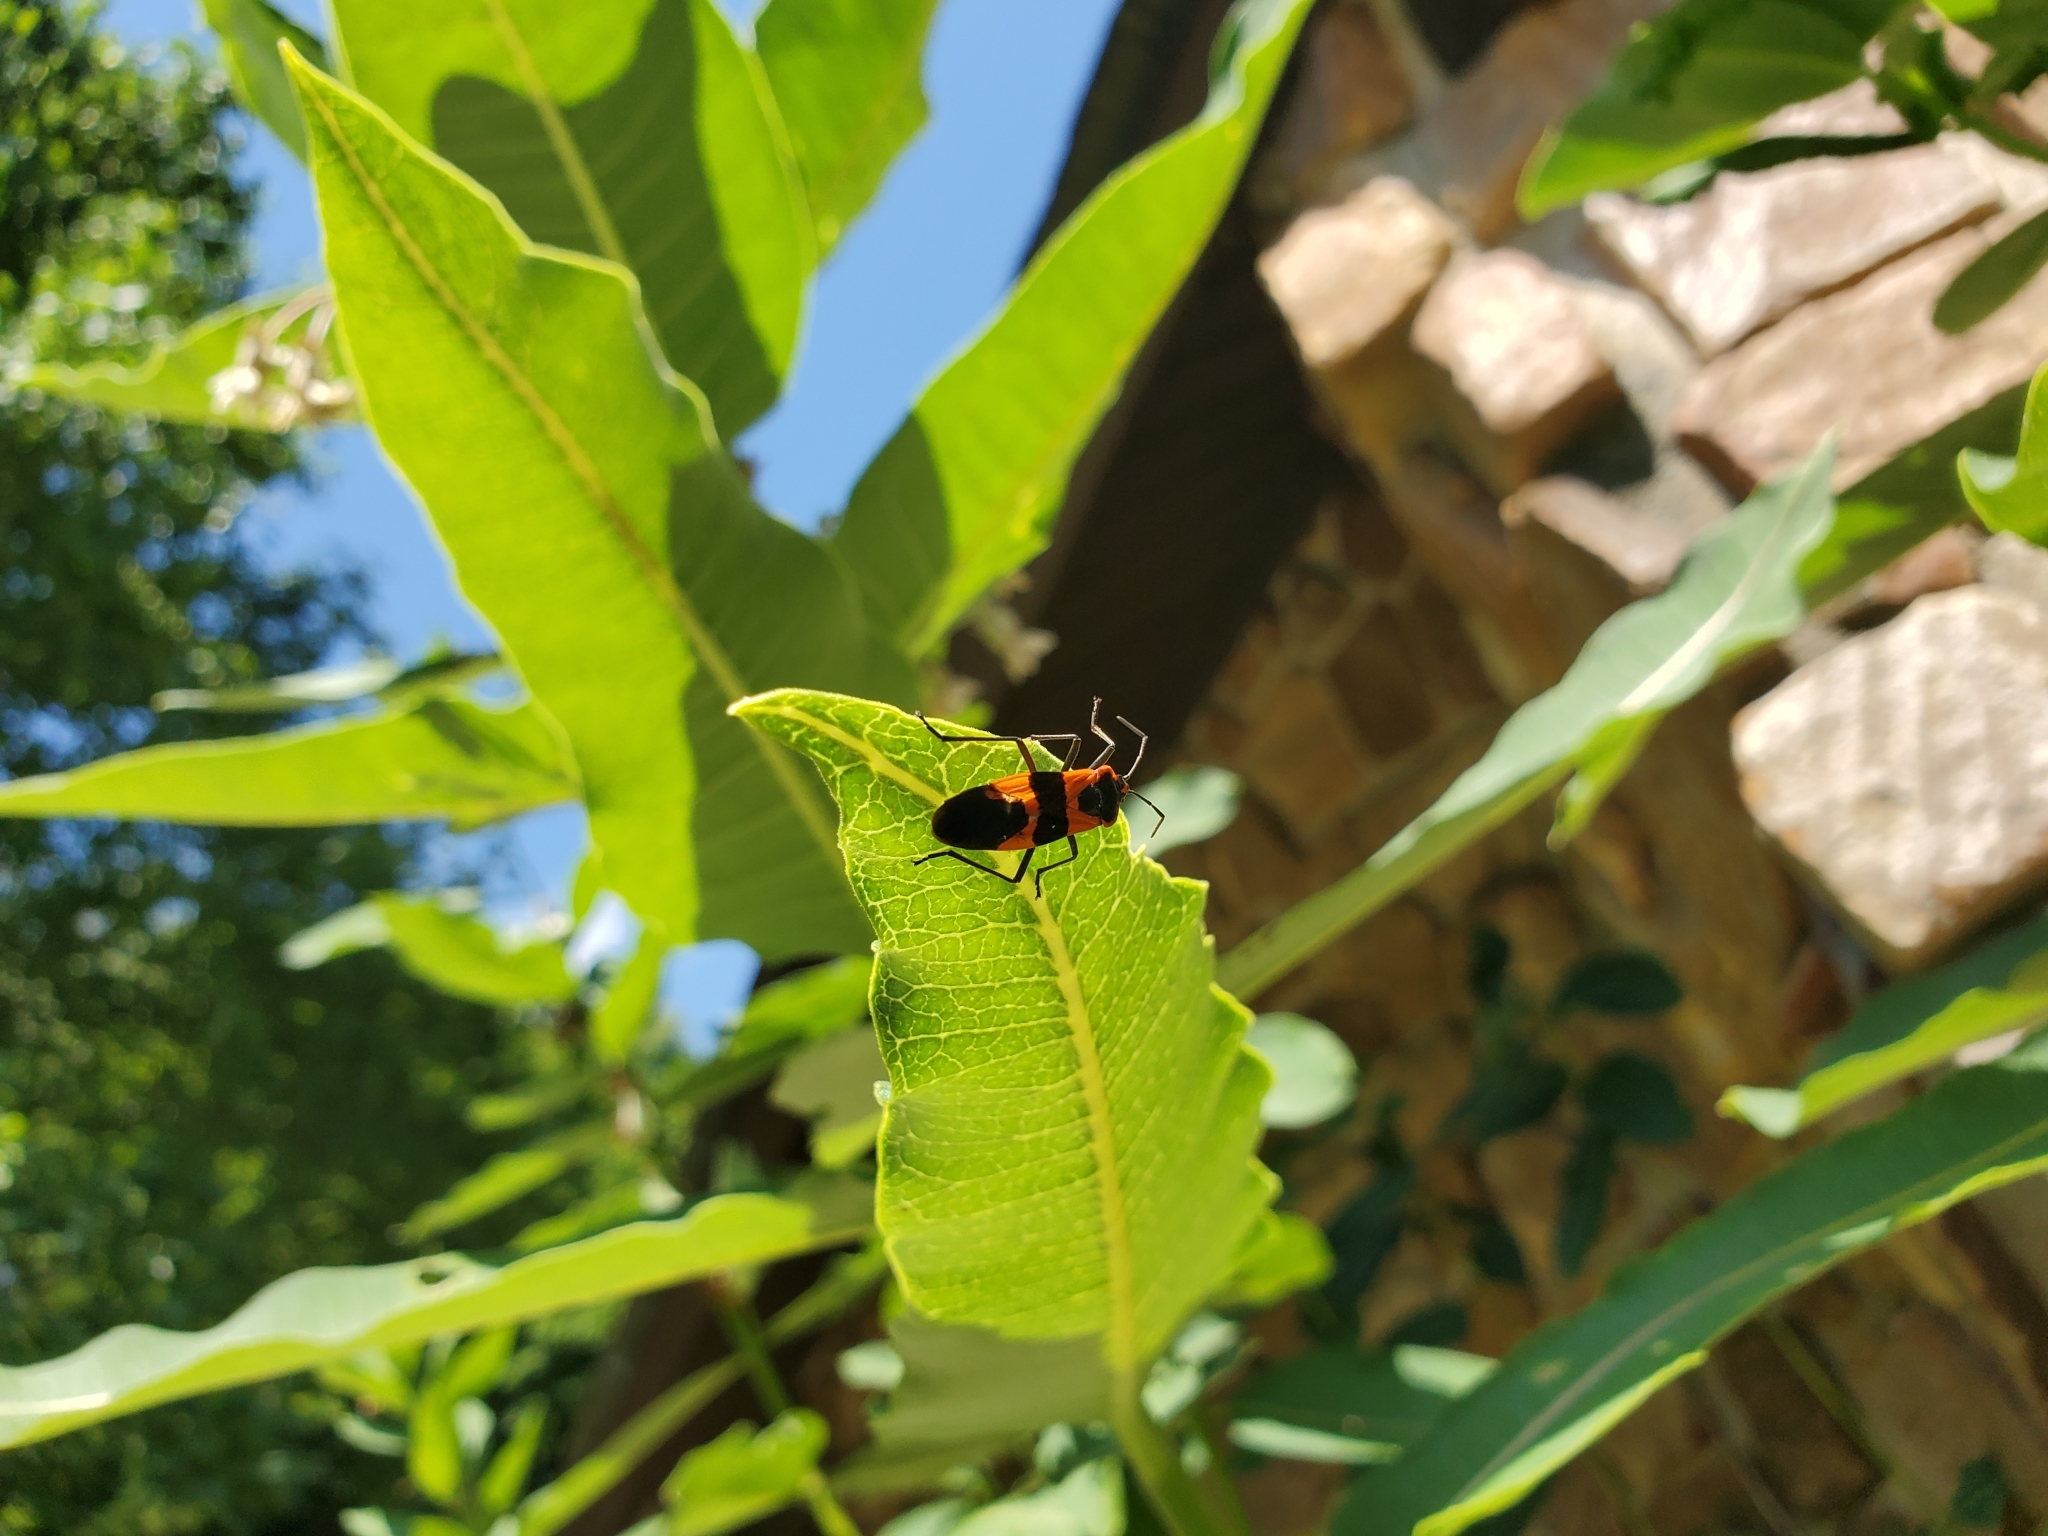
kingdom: Animalia
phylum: Arthropoda
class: Insecta
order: Hemiptera
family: Lygaeidae
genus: Oncopeltus
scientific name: Oncopeltus fasciatus
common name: Large milkweed bug
